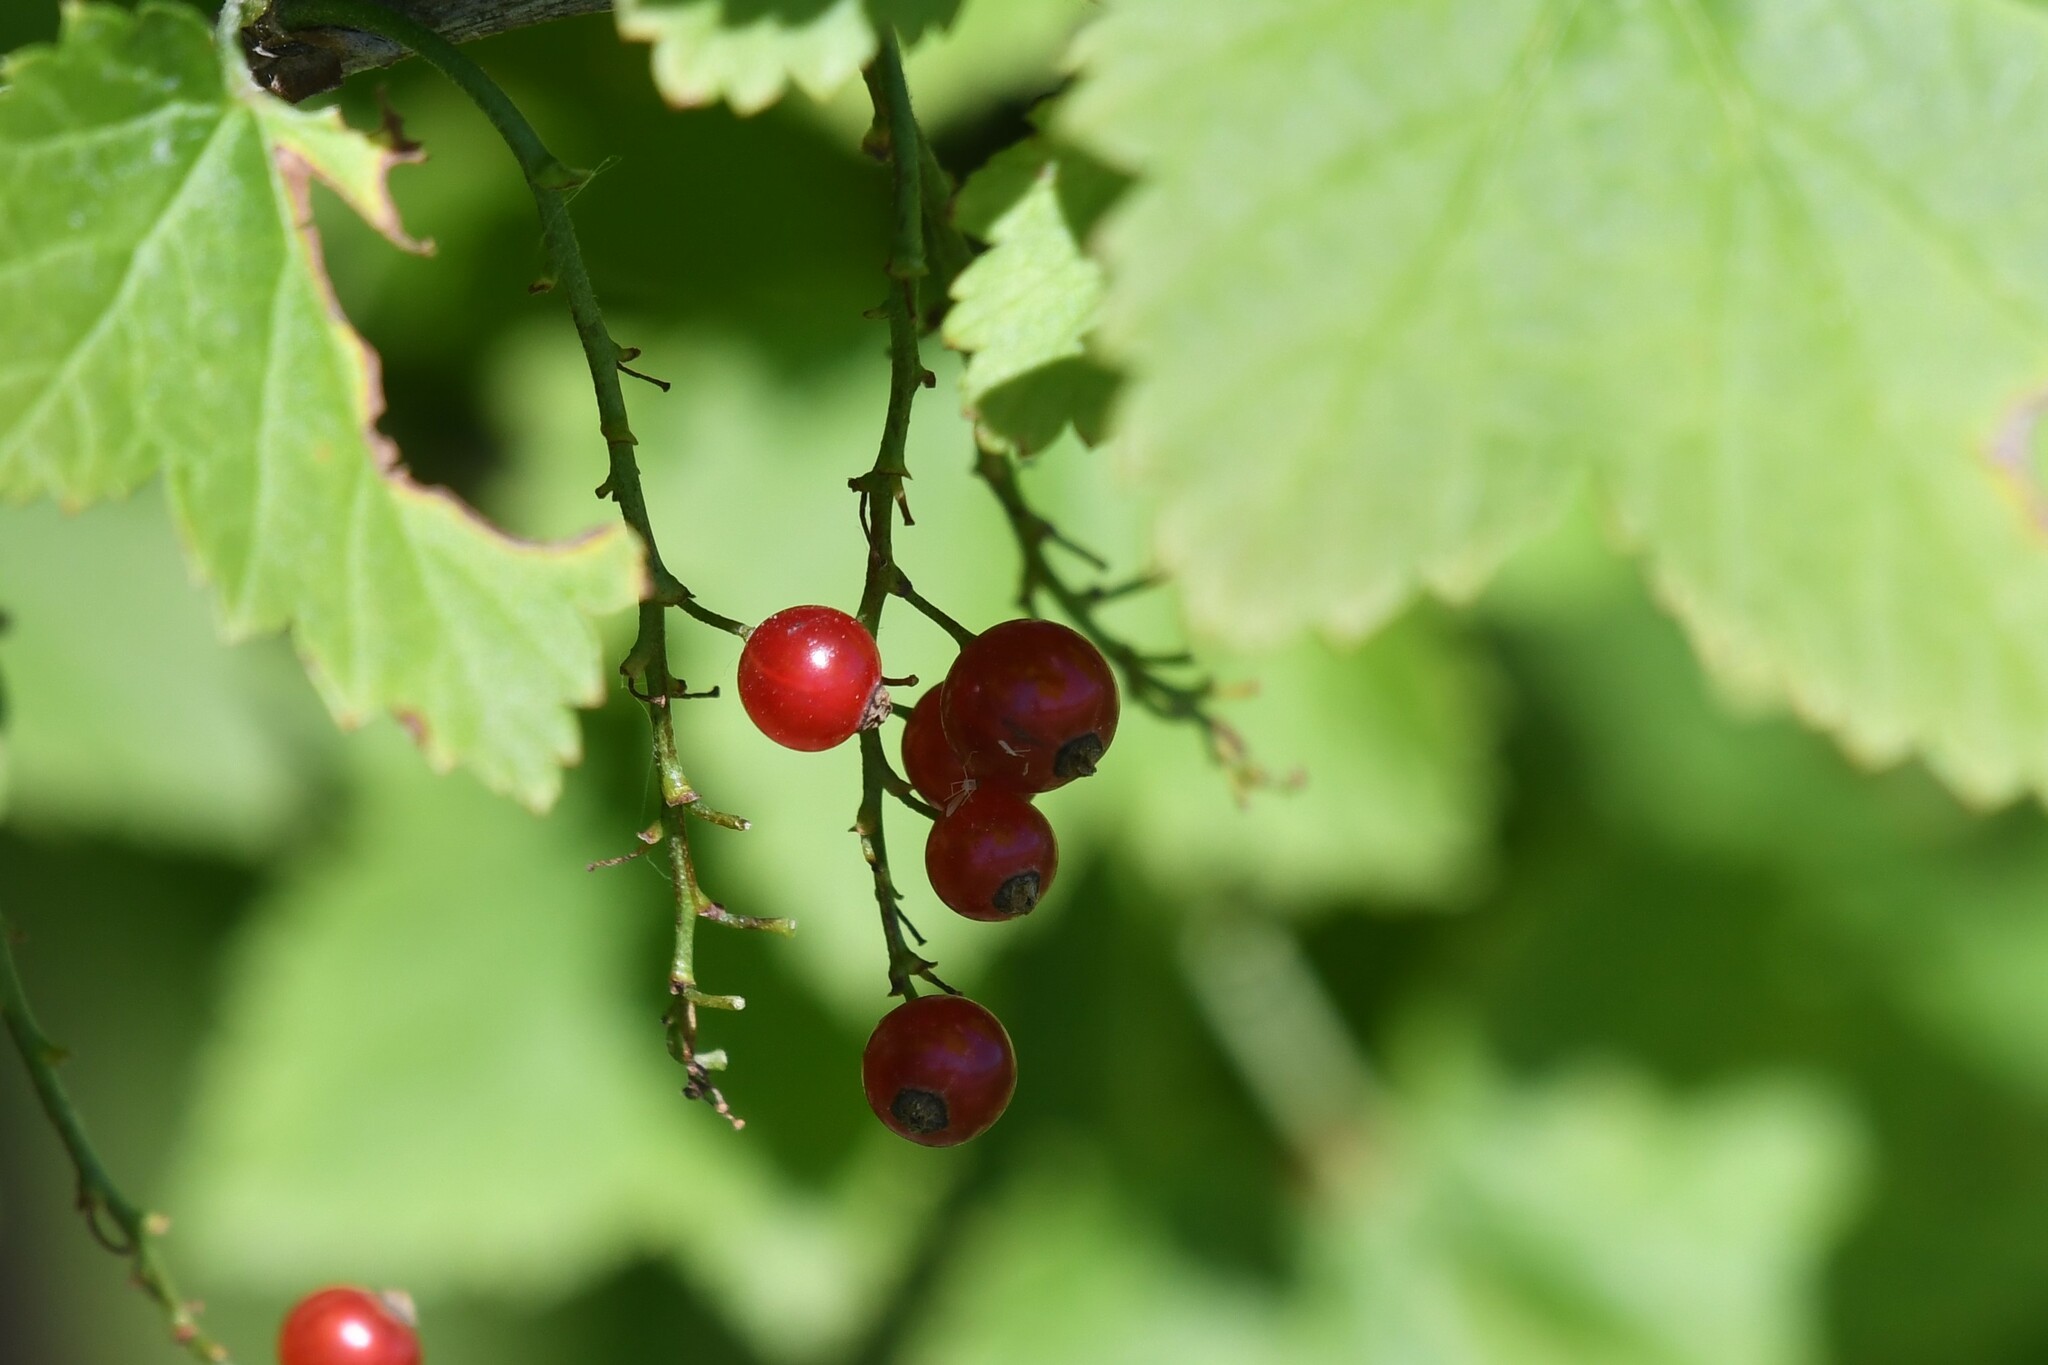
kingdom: Plantae
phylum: Tracheophyta
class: Magnoliopsida
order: Saxifragales
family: Grossulariaceae
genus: Ribes
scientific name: Ribes rubrum
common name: Red currant
